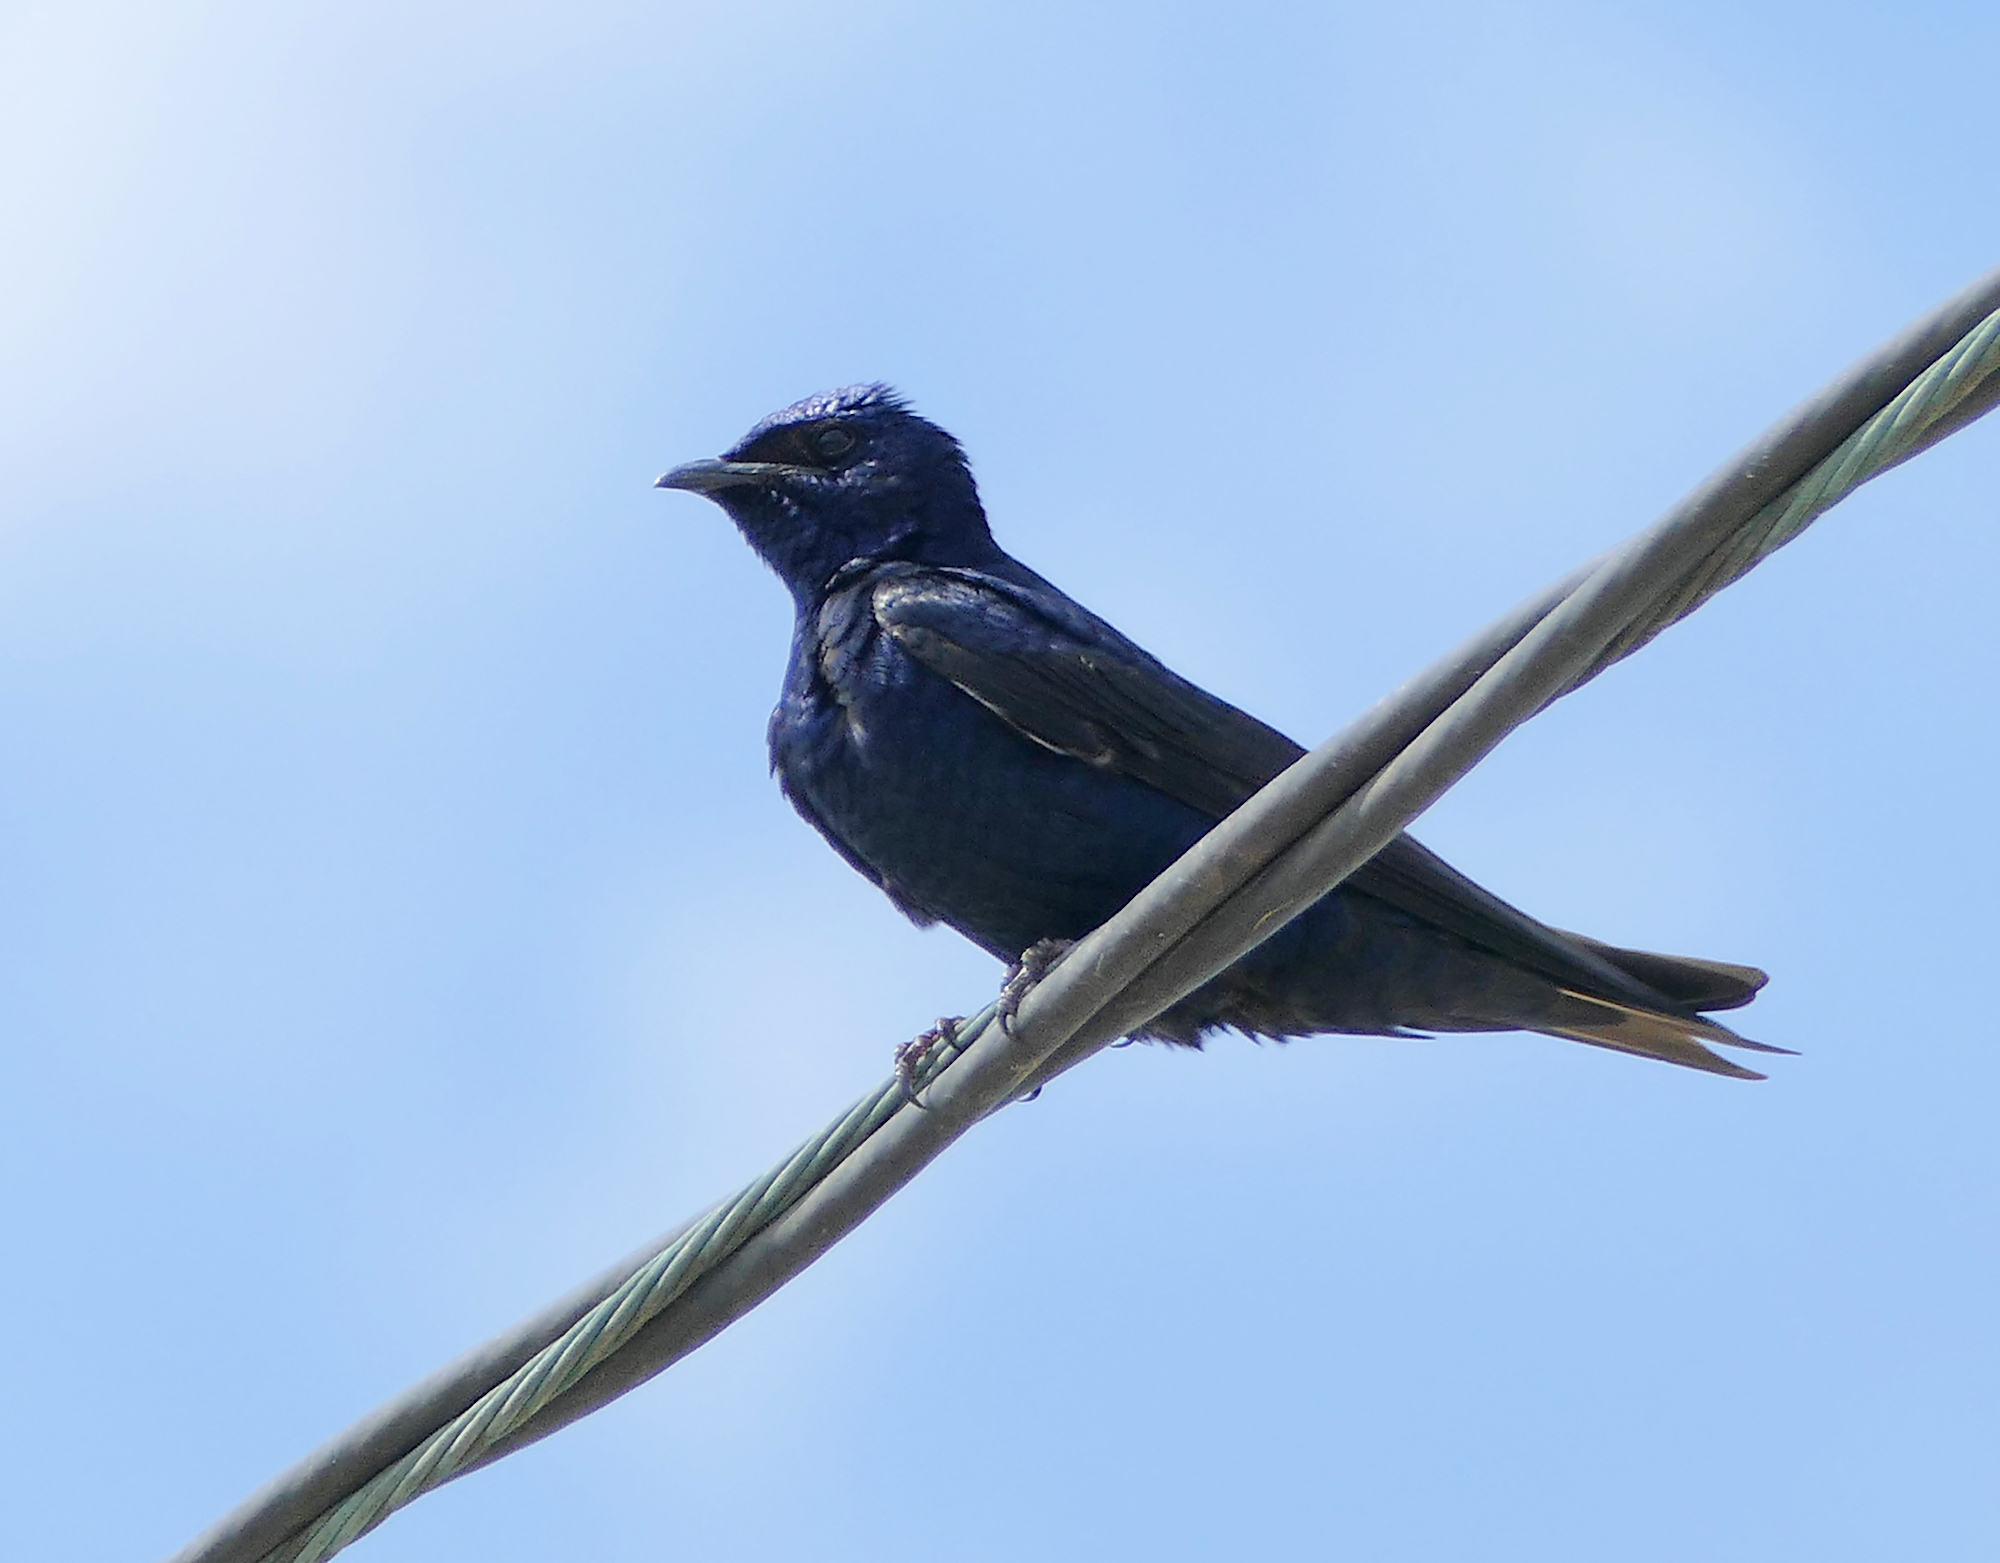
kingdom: Animalia
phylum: Chordata
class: Aves
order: Passeriformes
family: Hirundinidae
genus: Progne
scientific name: Progne subis
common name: Purple martin
